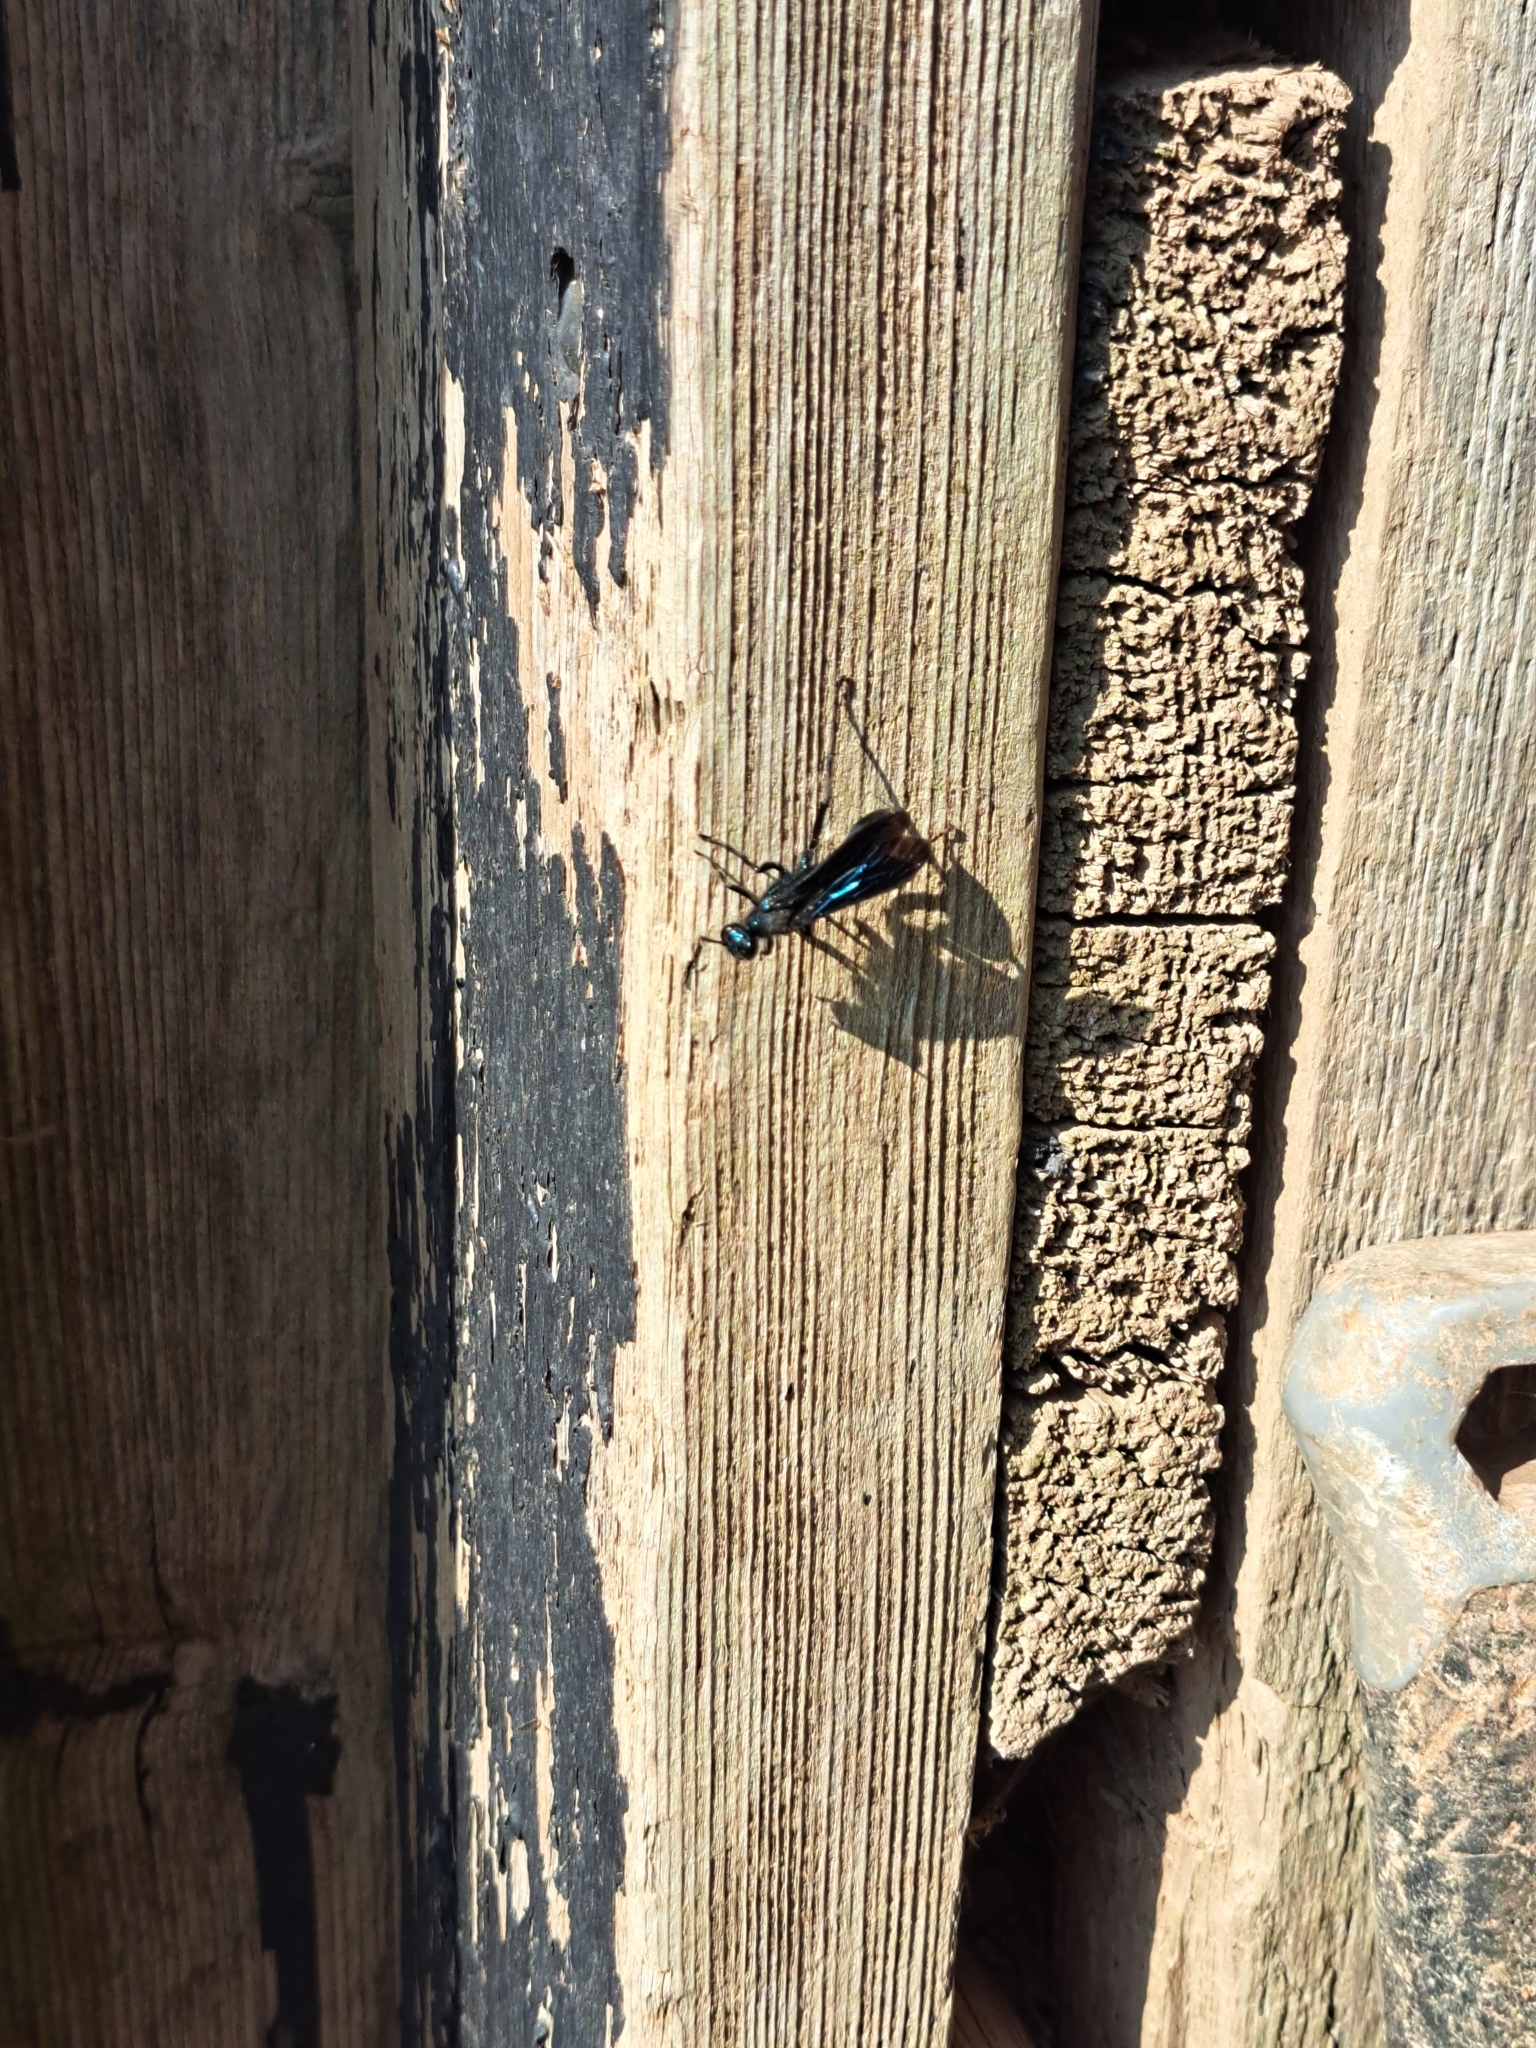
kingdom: Animalia
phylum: Arthropoda
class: Insecta
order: Hymenoptera
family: Sphecidae
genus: Chalybion
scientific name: Chalybion californicum
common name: Mud dauber
